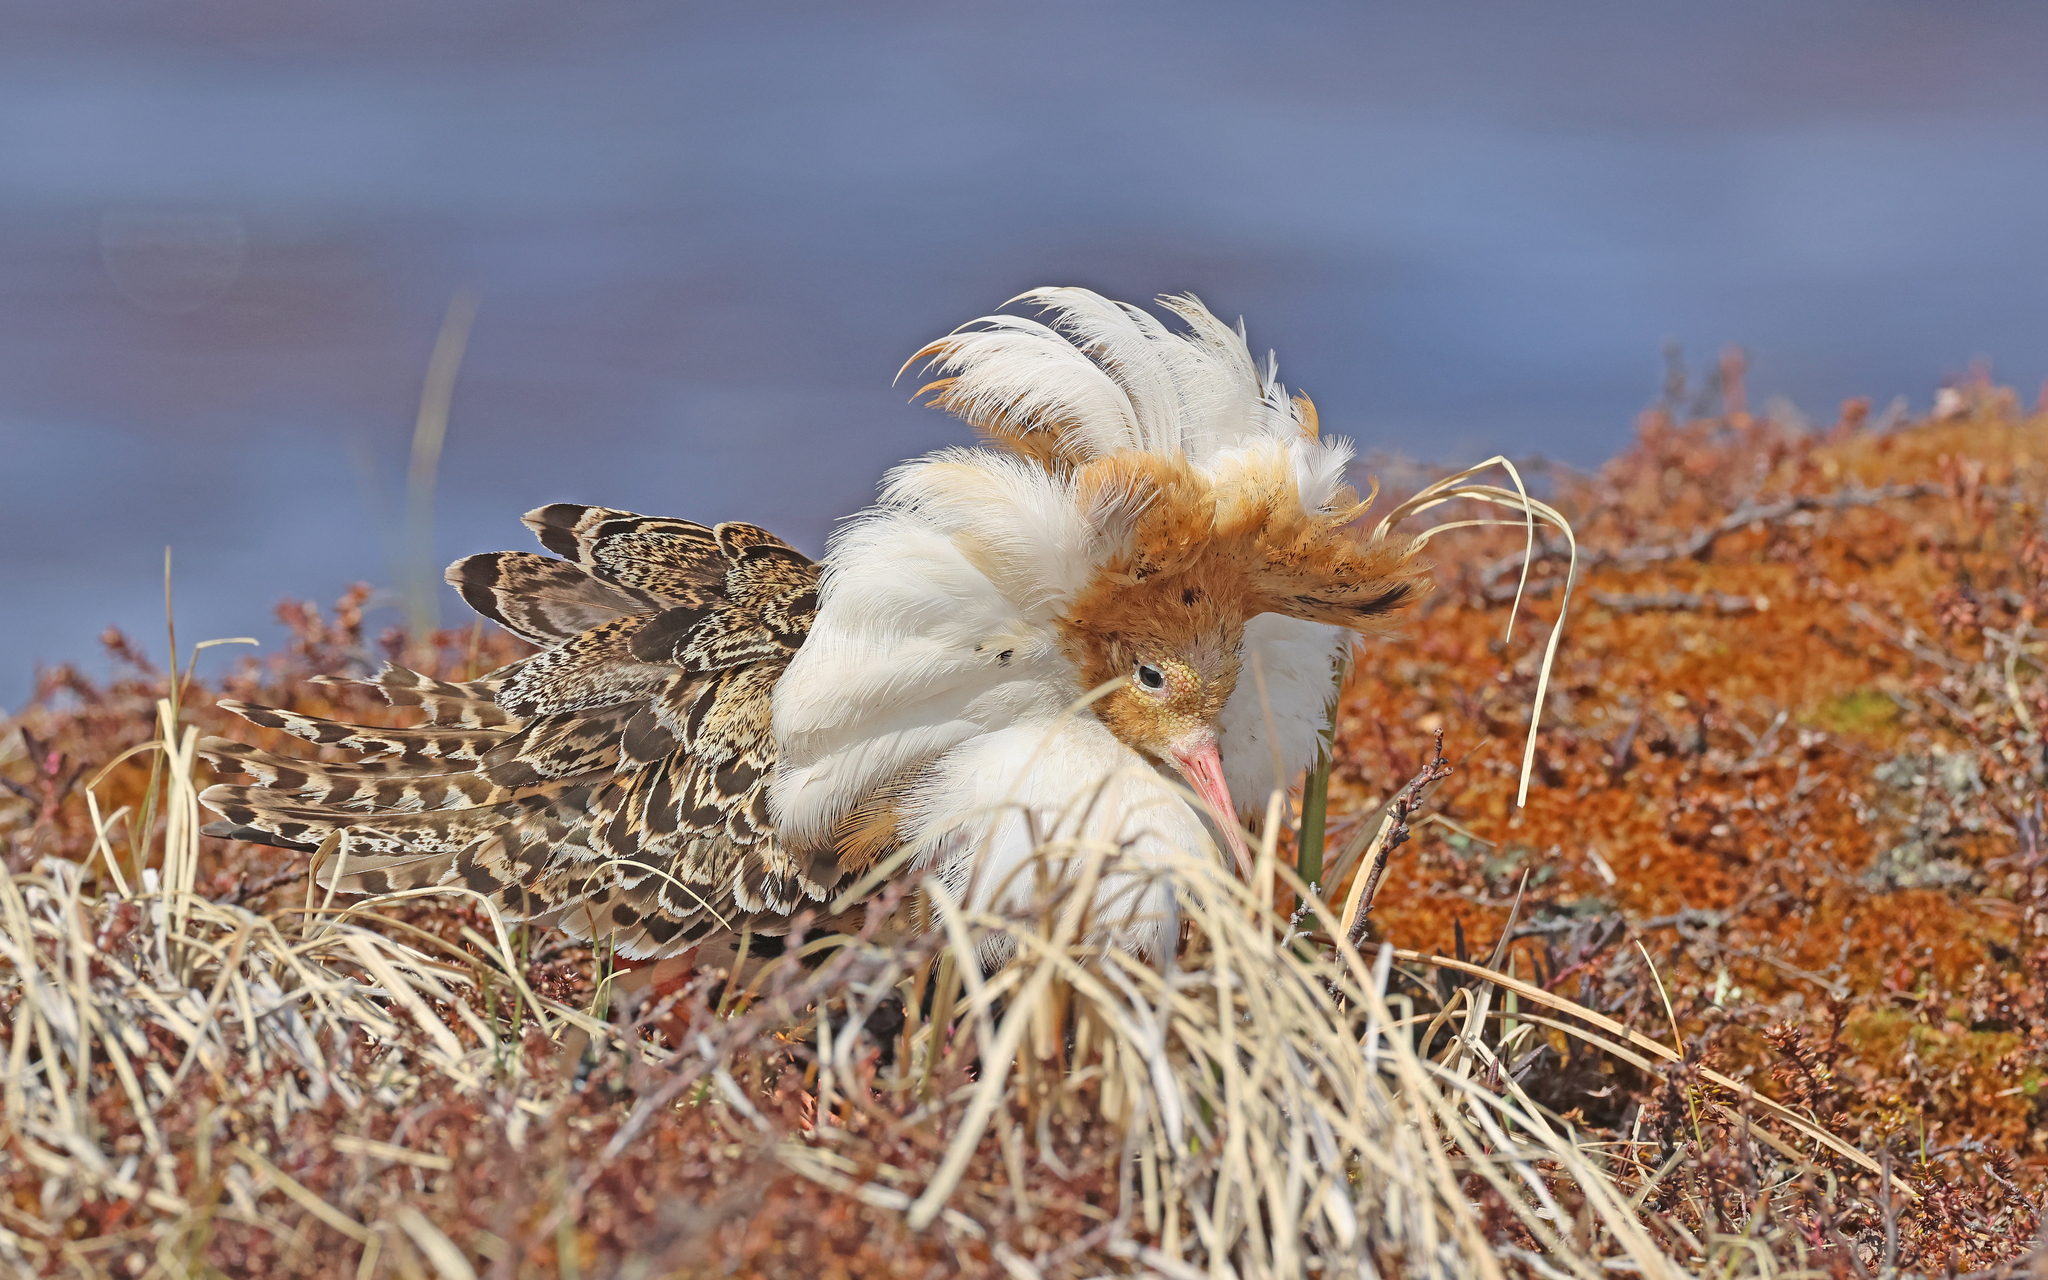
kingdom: Animalia
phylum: Chordata
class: Aves
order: Charadriiformes
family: Scolopacidae
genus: Calidris
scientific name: Calidris pugnax
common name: Ruff
